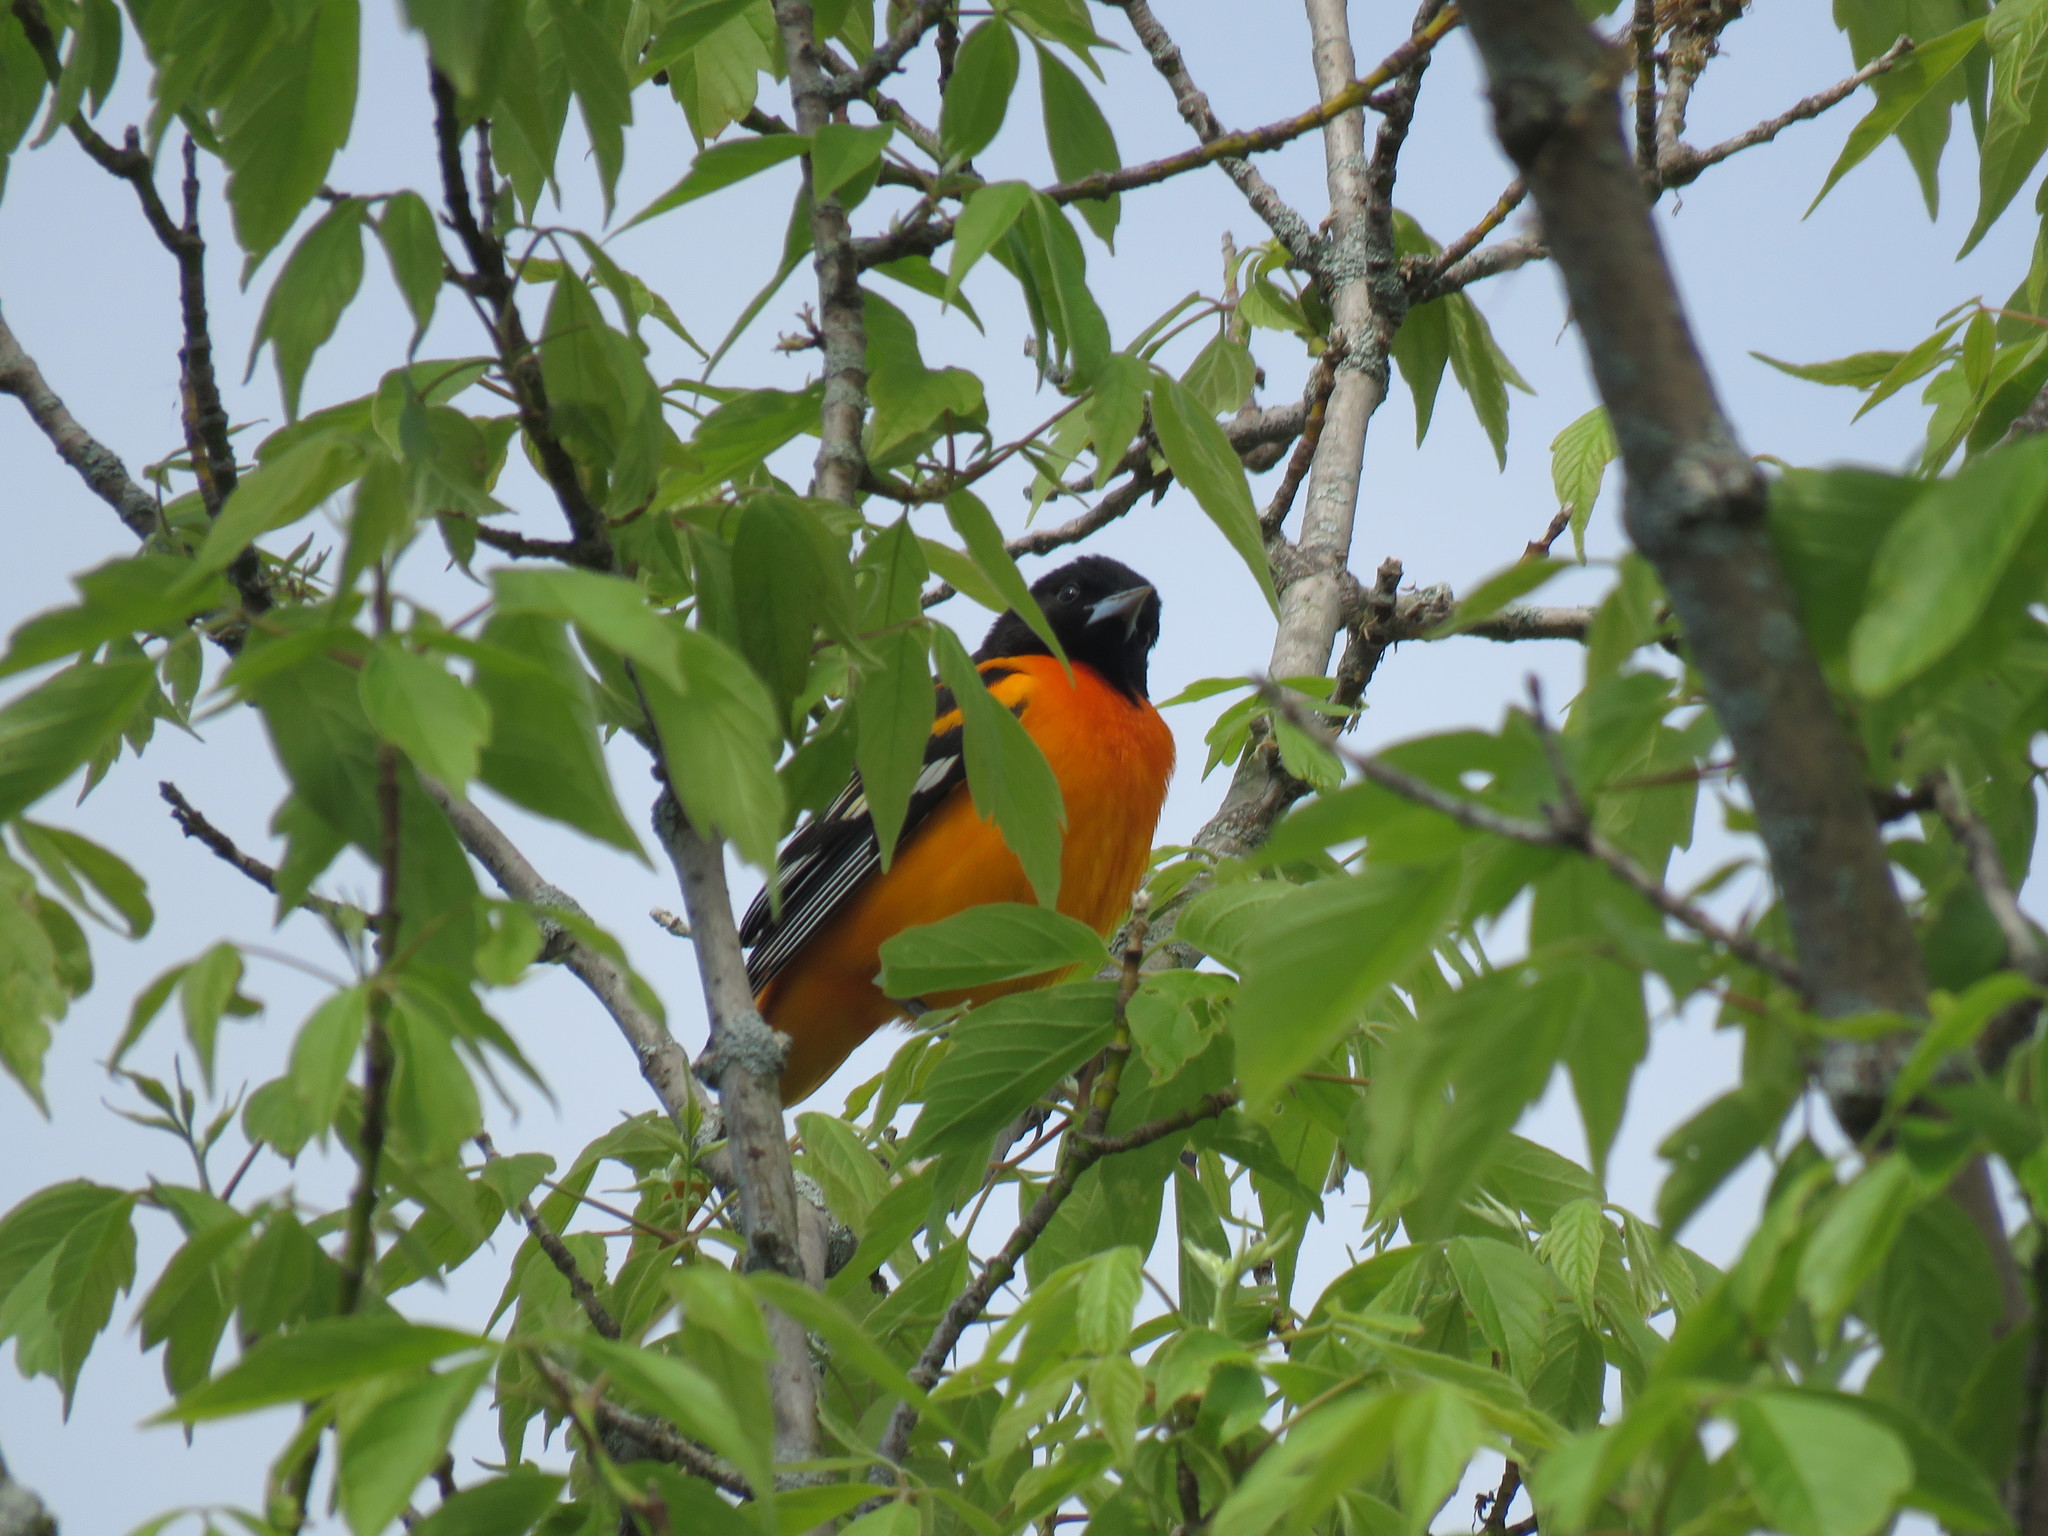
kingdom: Animalia
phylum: Chordata
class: Aves
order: Passeriformes
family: Icteridae
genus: Icterus
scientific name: Icterus galbula
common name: Baltimore oriole
